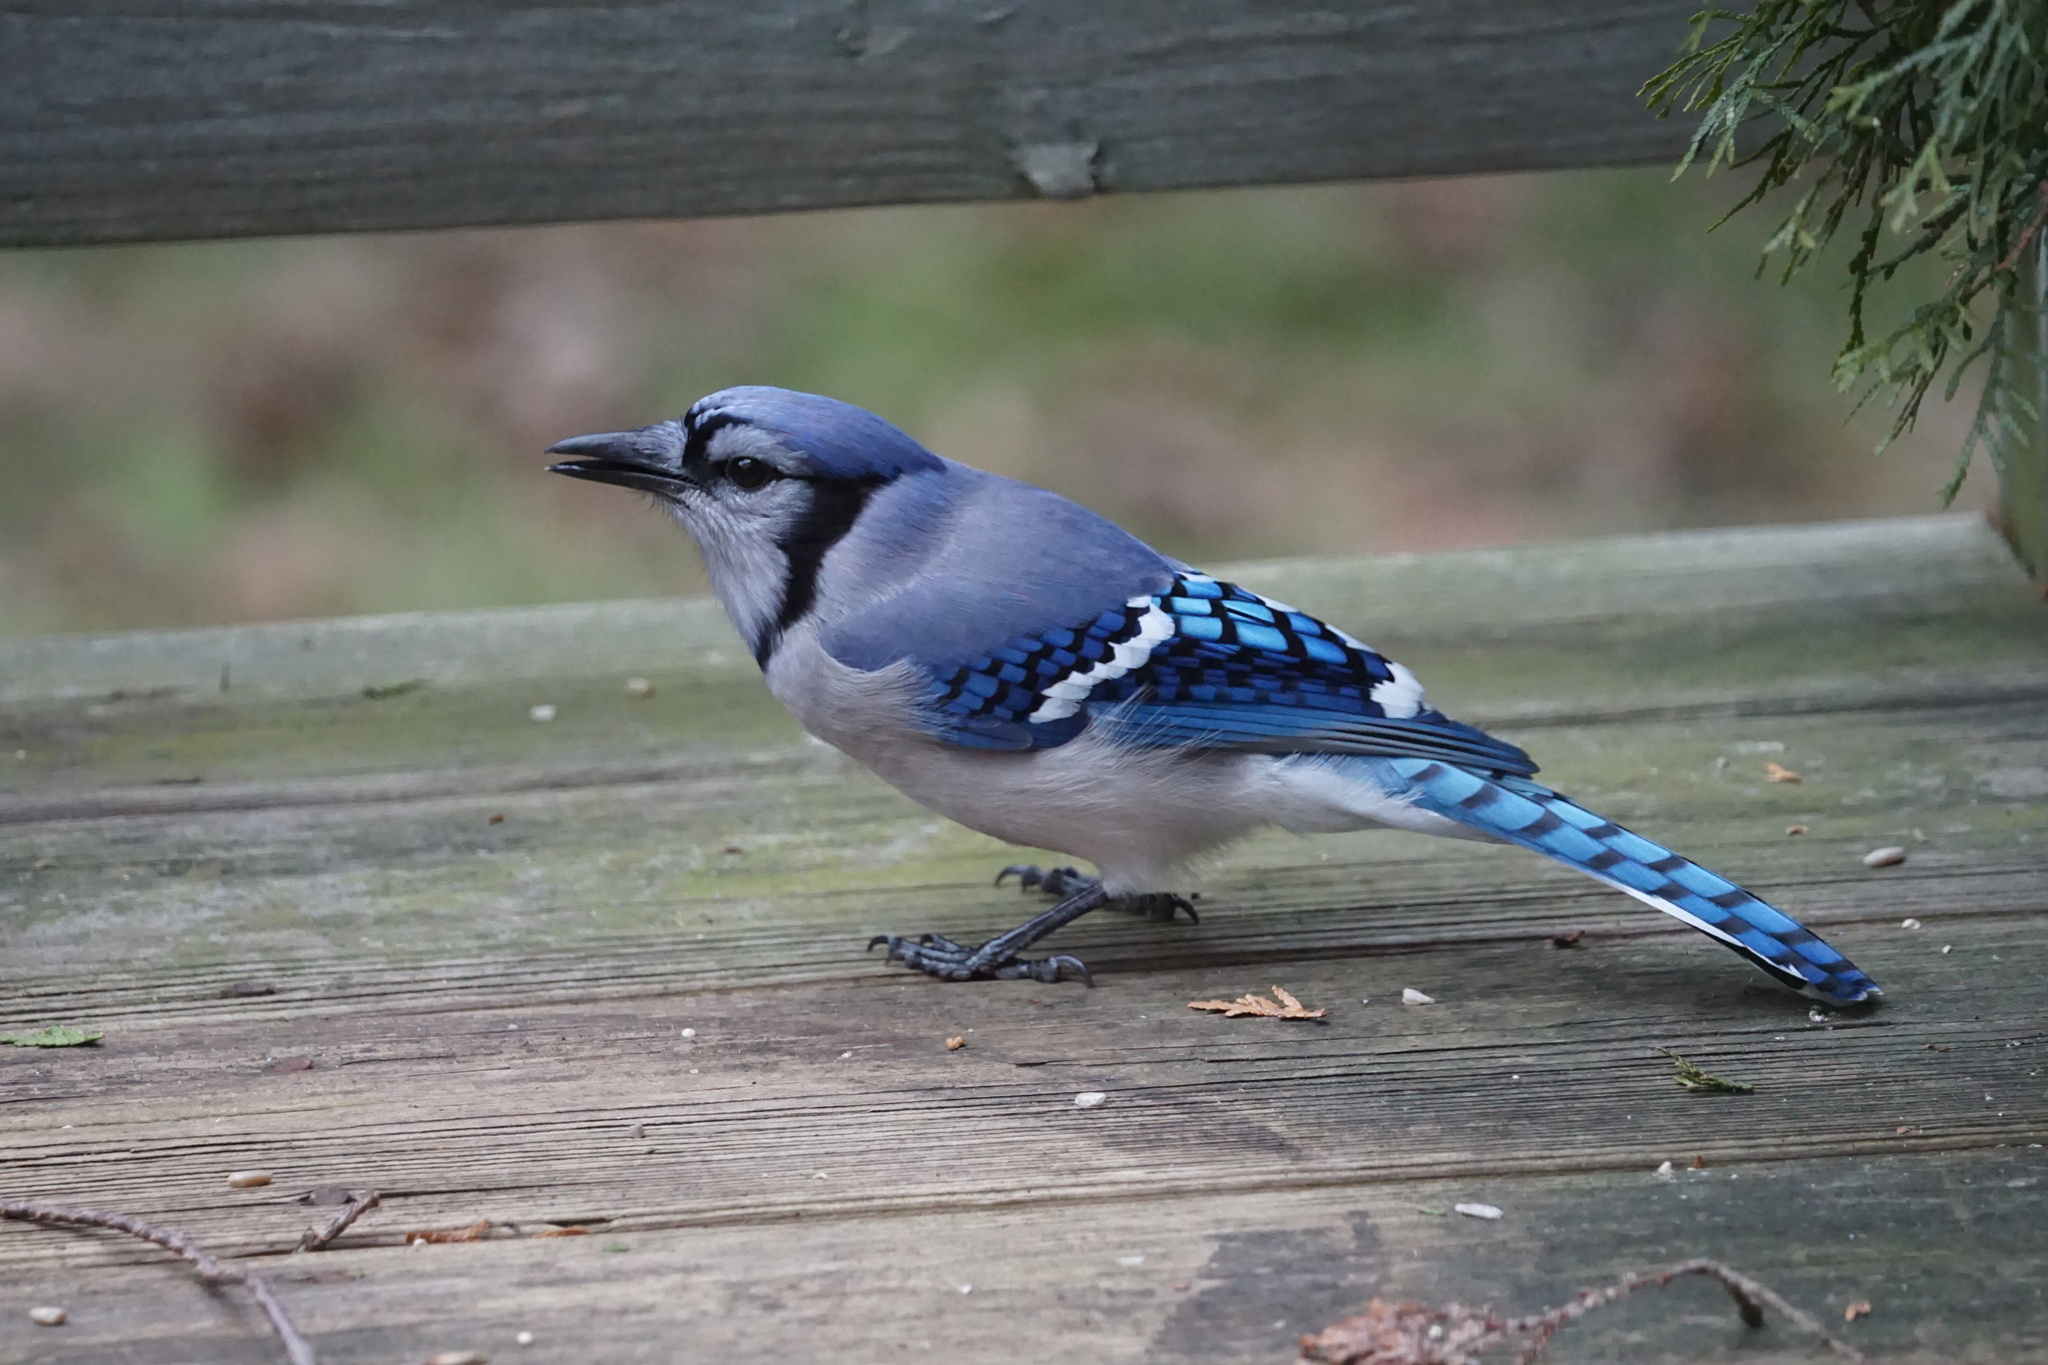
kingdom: Animalia
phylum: Chordata
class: Aves
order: Passeriformes
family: Corvidae
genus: Cyanocitta
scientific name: Cyanocitta cristata
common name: Blue jay
